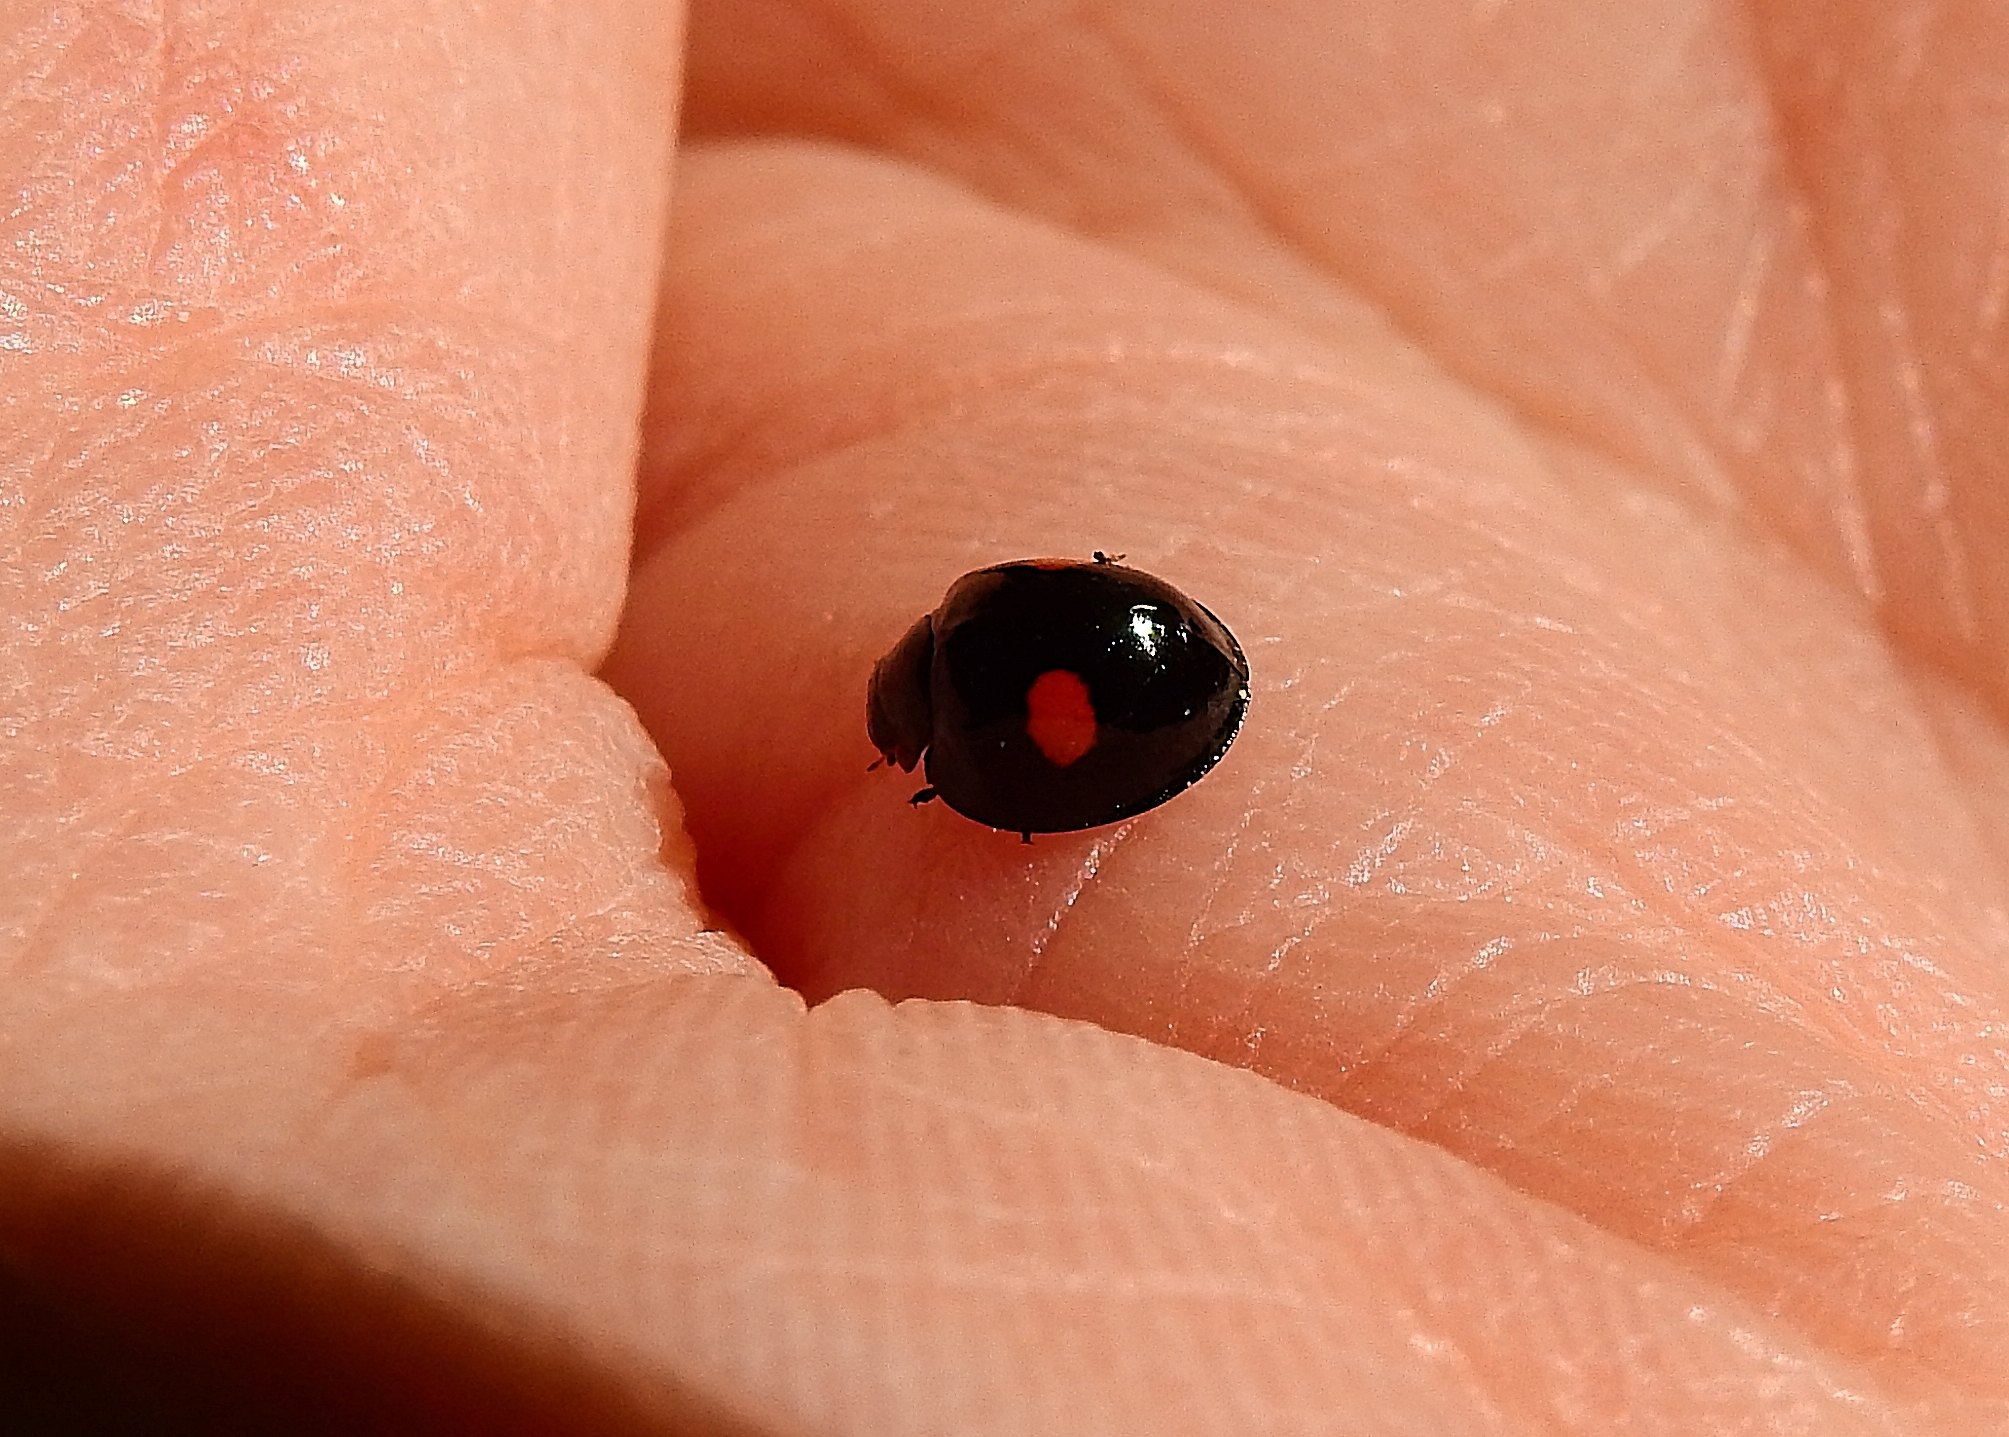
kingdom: Animalia
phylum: Arthropoda
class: Insecta
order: Coleoptera
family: Coccinellidae
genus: Chilocorus
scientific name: Chilocorus renipustulatus
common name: Kidney-spot ladybird
